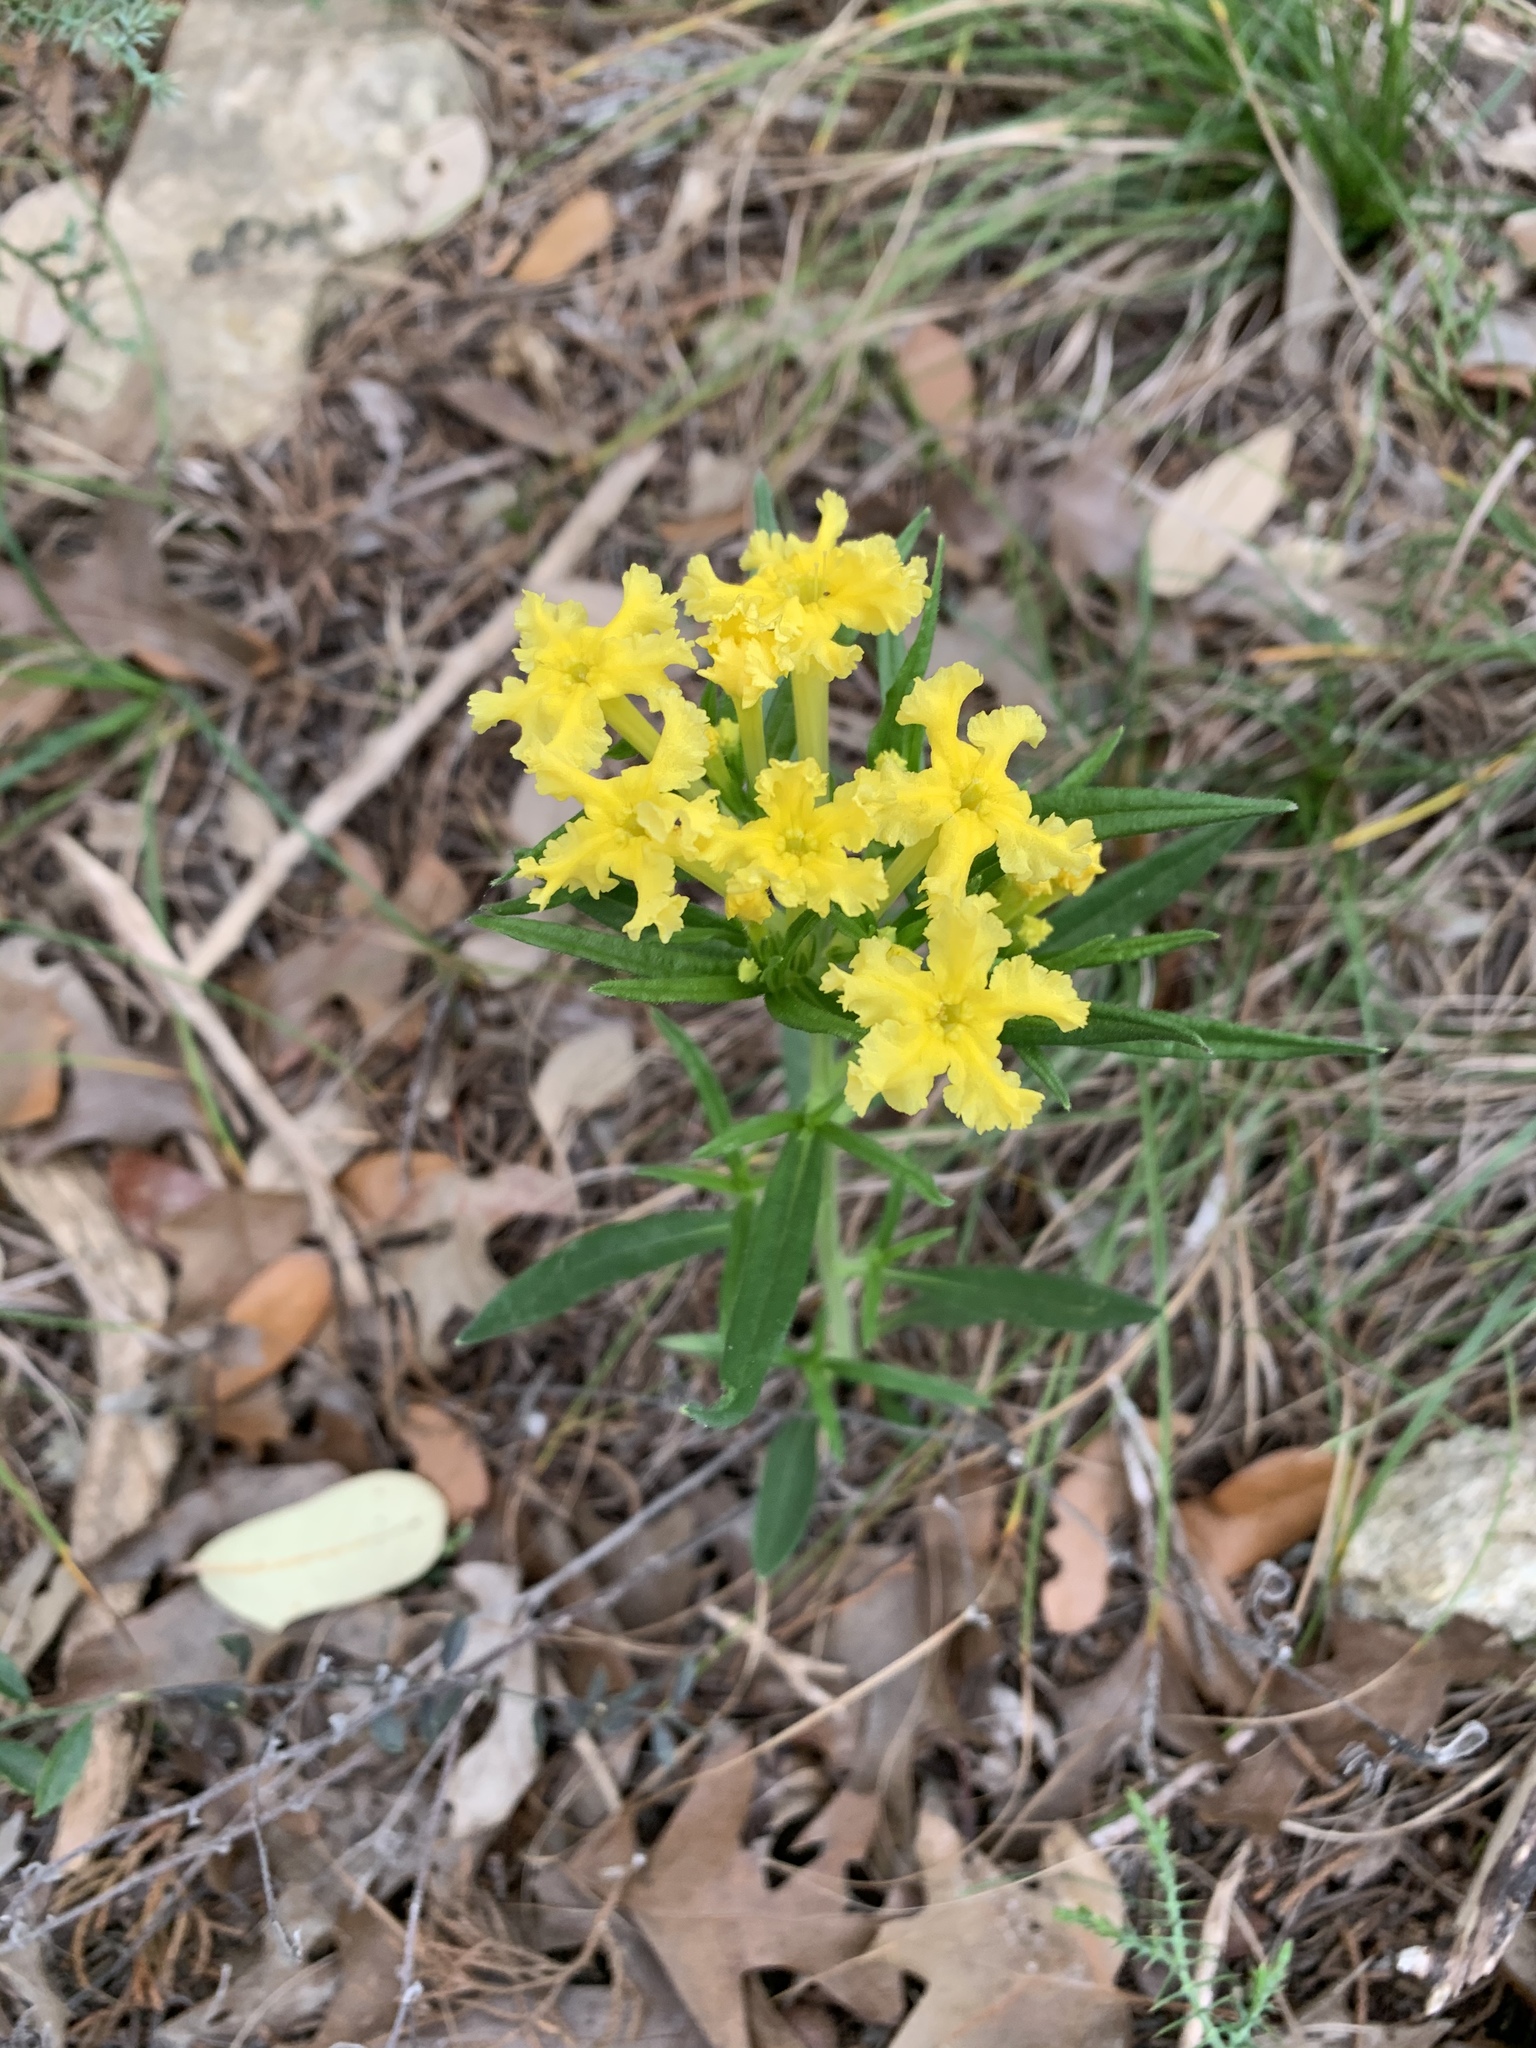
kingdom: Plantae
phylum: Tracheophyta
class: Magnoliopsida
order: Boraginales
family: Boraginaceae
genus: Lithospermum
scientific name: Lithospermum incisum
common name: Fringed gromwell
